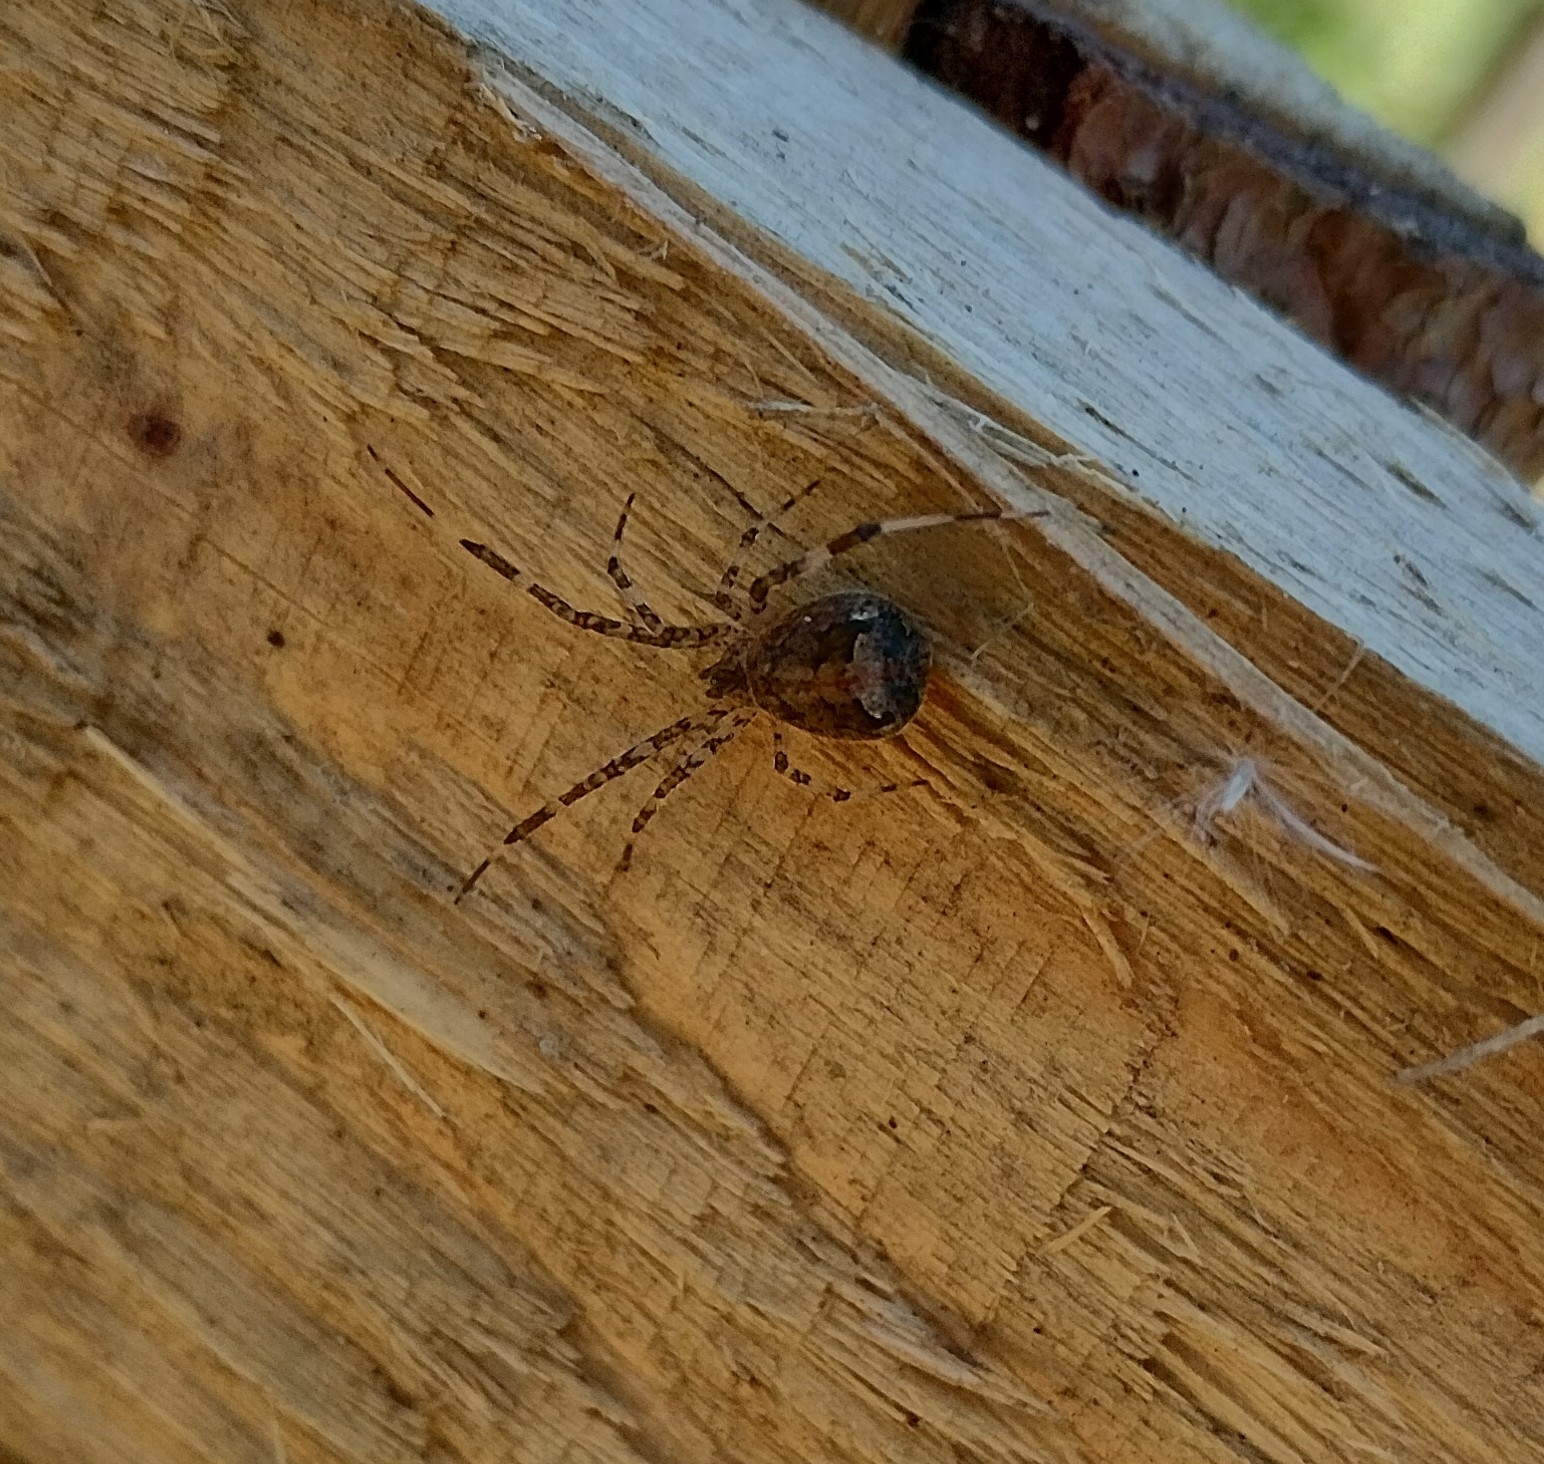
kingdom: Animalia
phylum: Arthropoda
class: Arachnida
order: Araneae
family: Theridiidae
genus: Episinus
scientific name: Episinus maculipes
